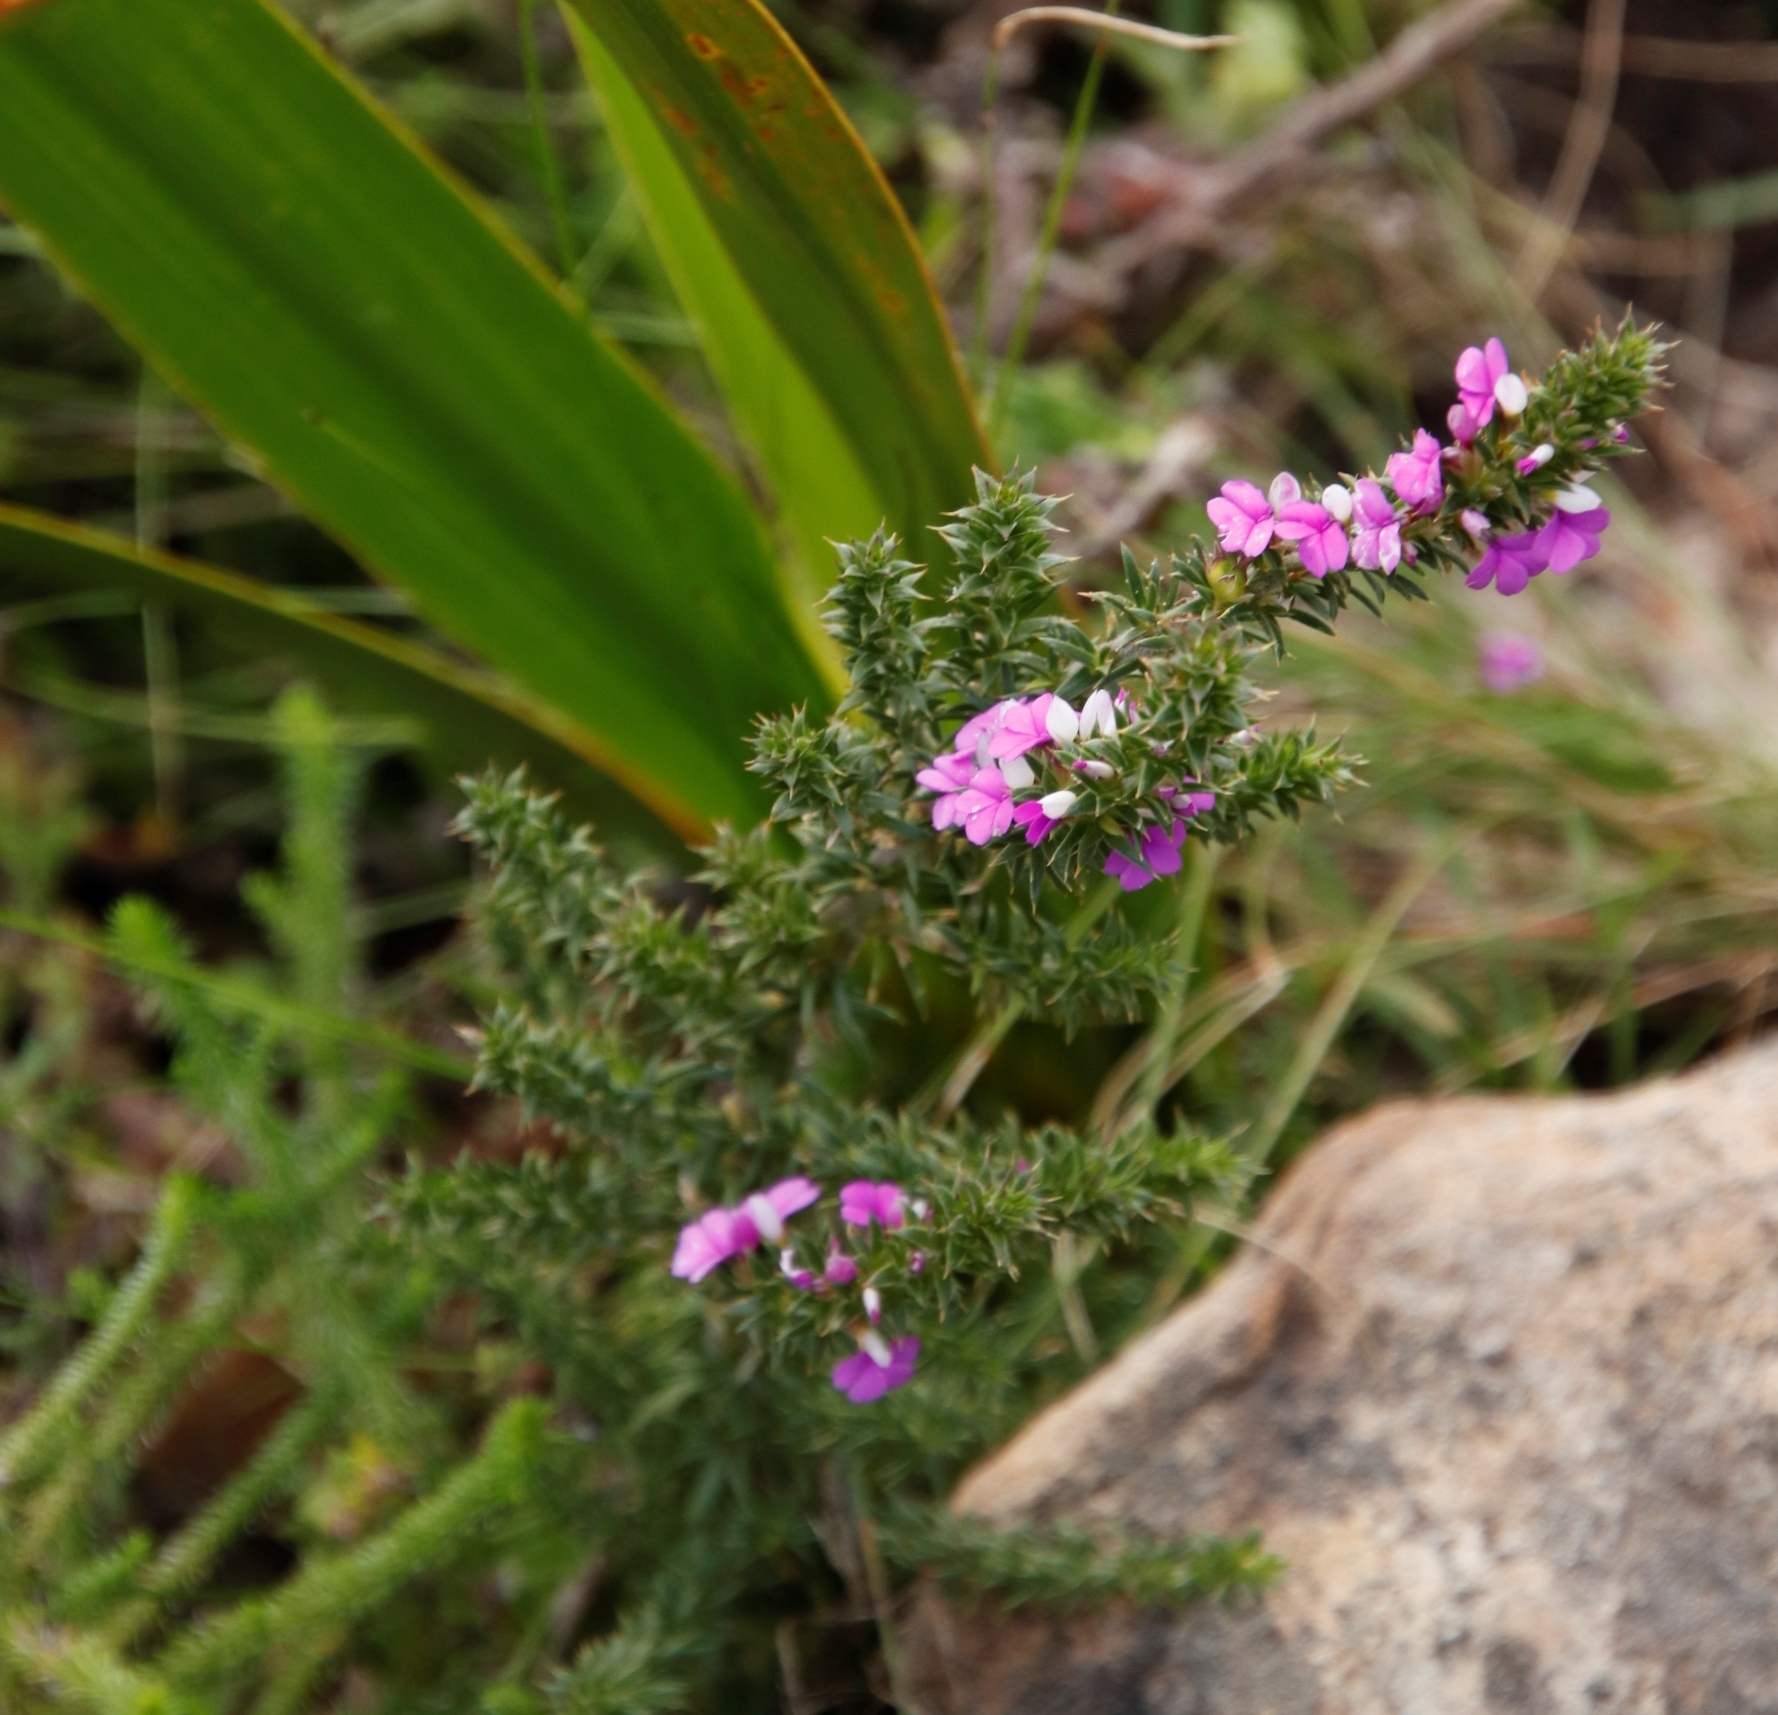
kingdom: Plantae
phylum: Tracheophyta
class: Magnoliopsida
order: Fabales
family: Polygalaceae
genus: Muraltia
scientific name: Muraltia heisteria
